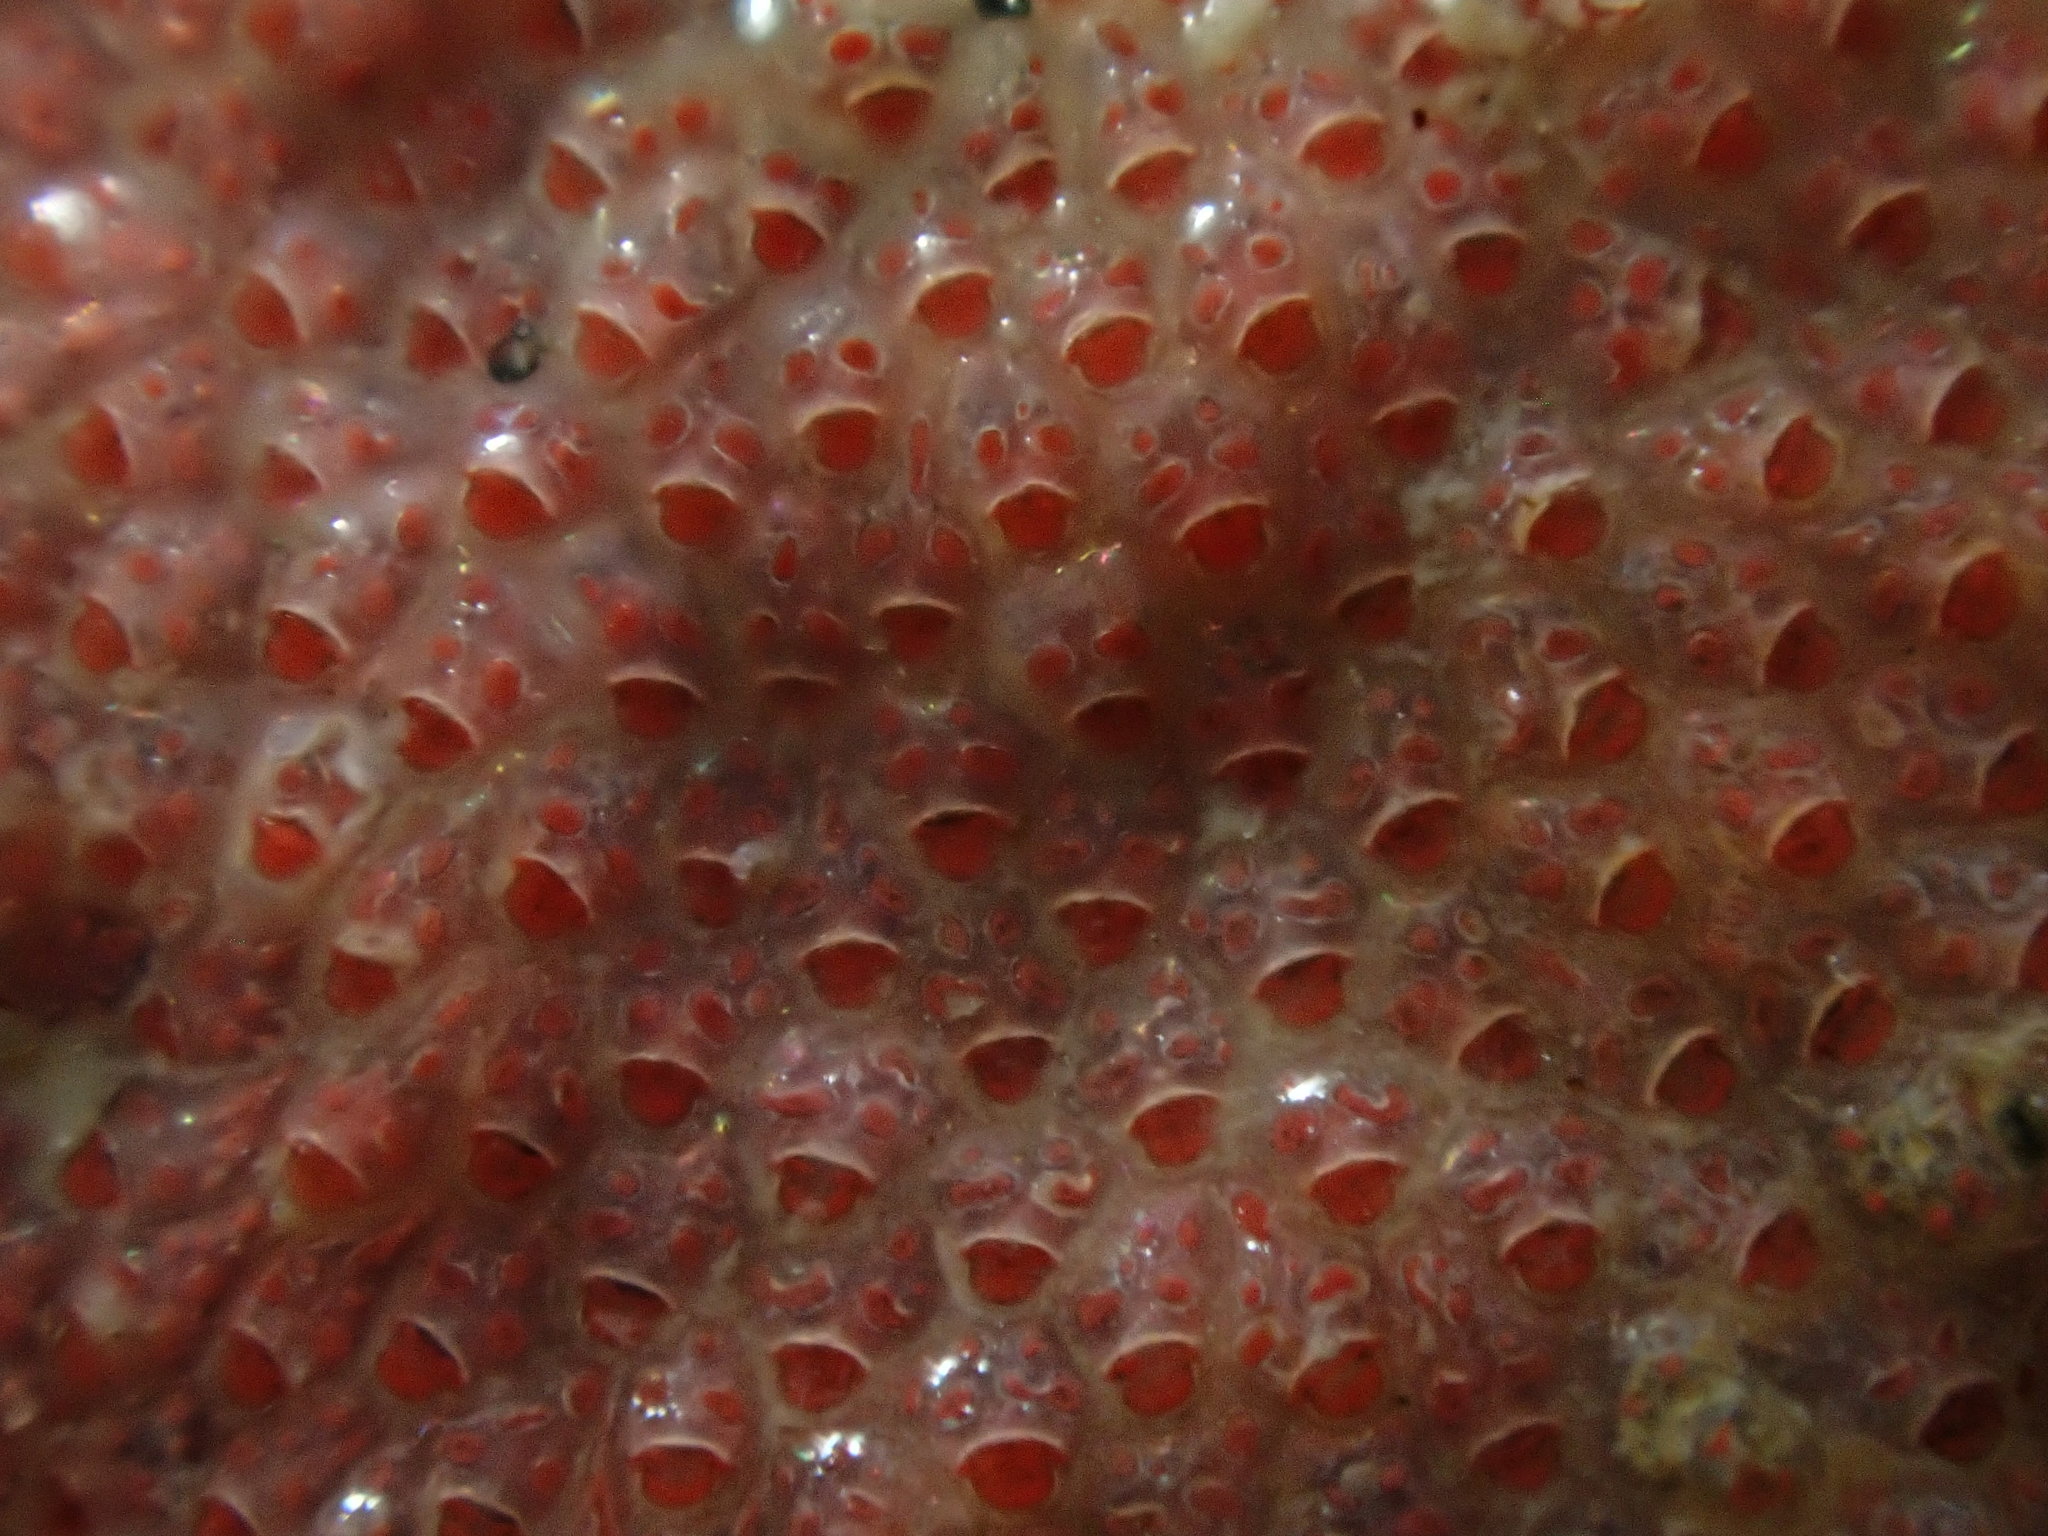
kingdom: Animalia
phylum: Bryozoa
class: Gymnolaemata
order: Cheilostomatida
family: Eurystomellidae
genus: Eurystomella
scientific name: Eurystomella foraminigera
